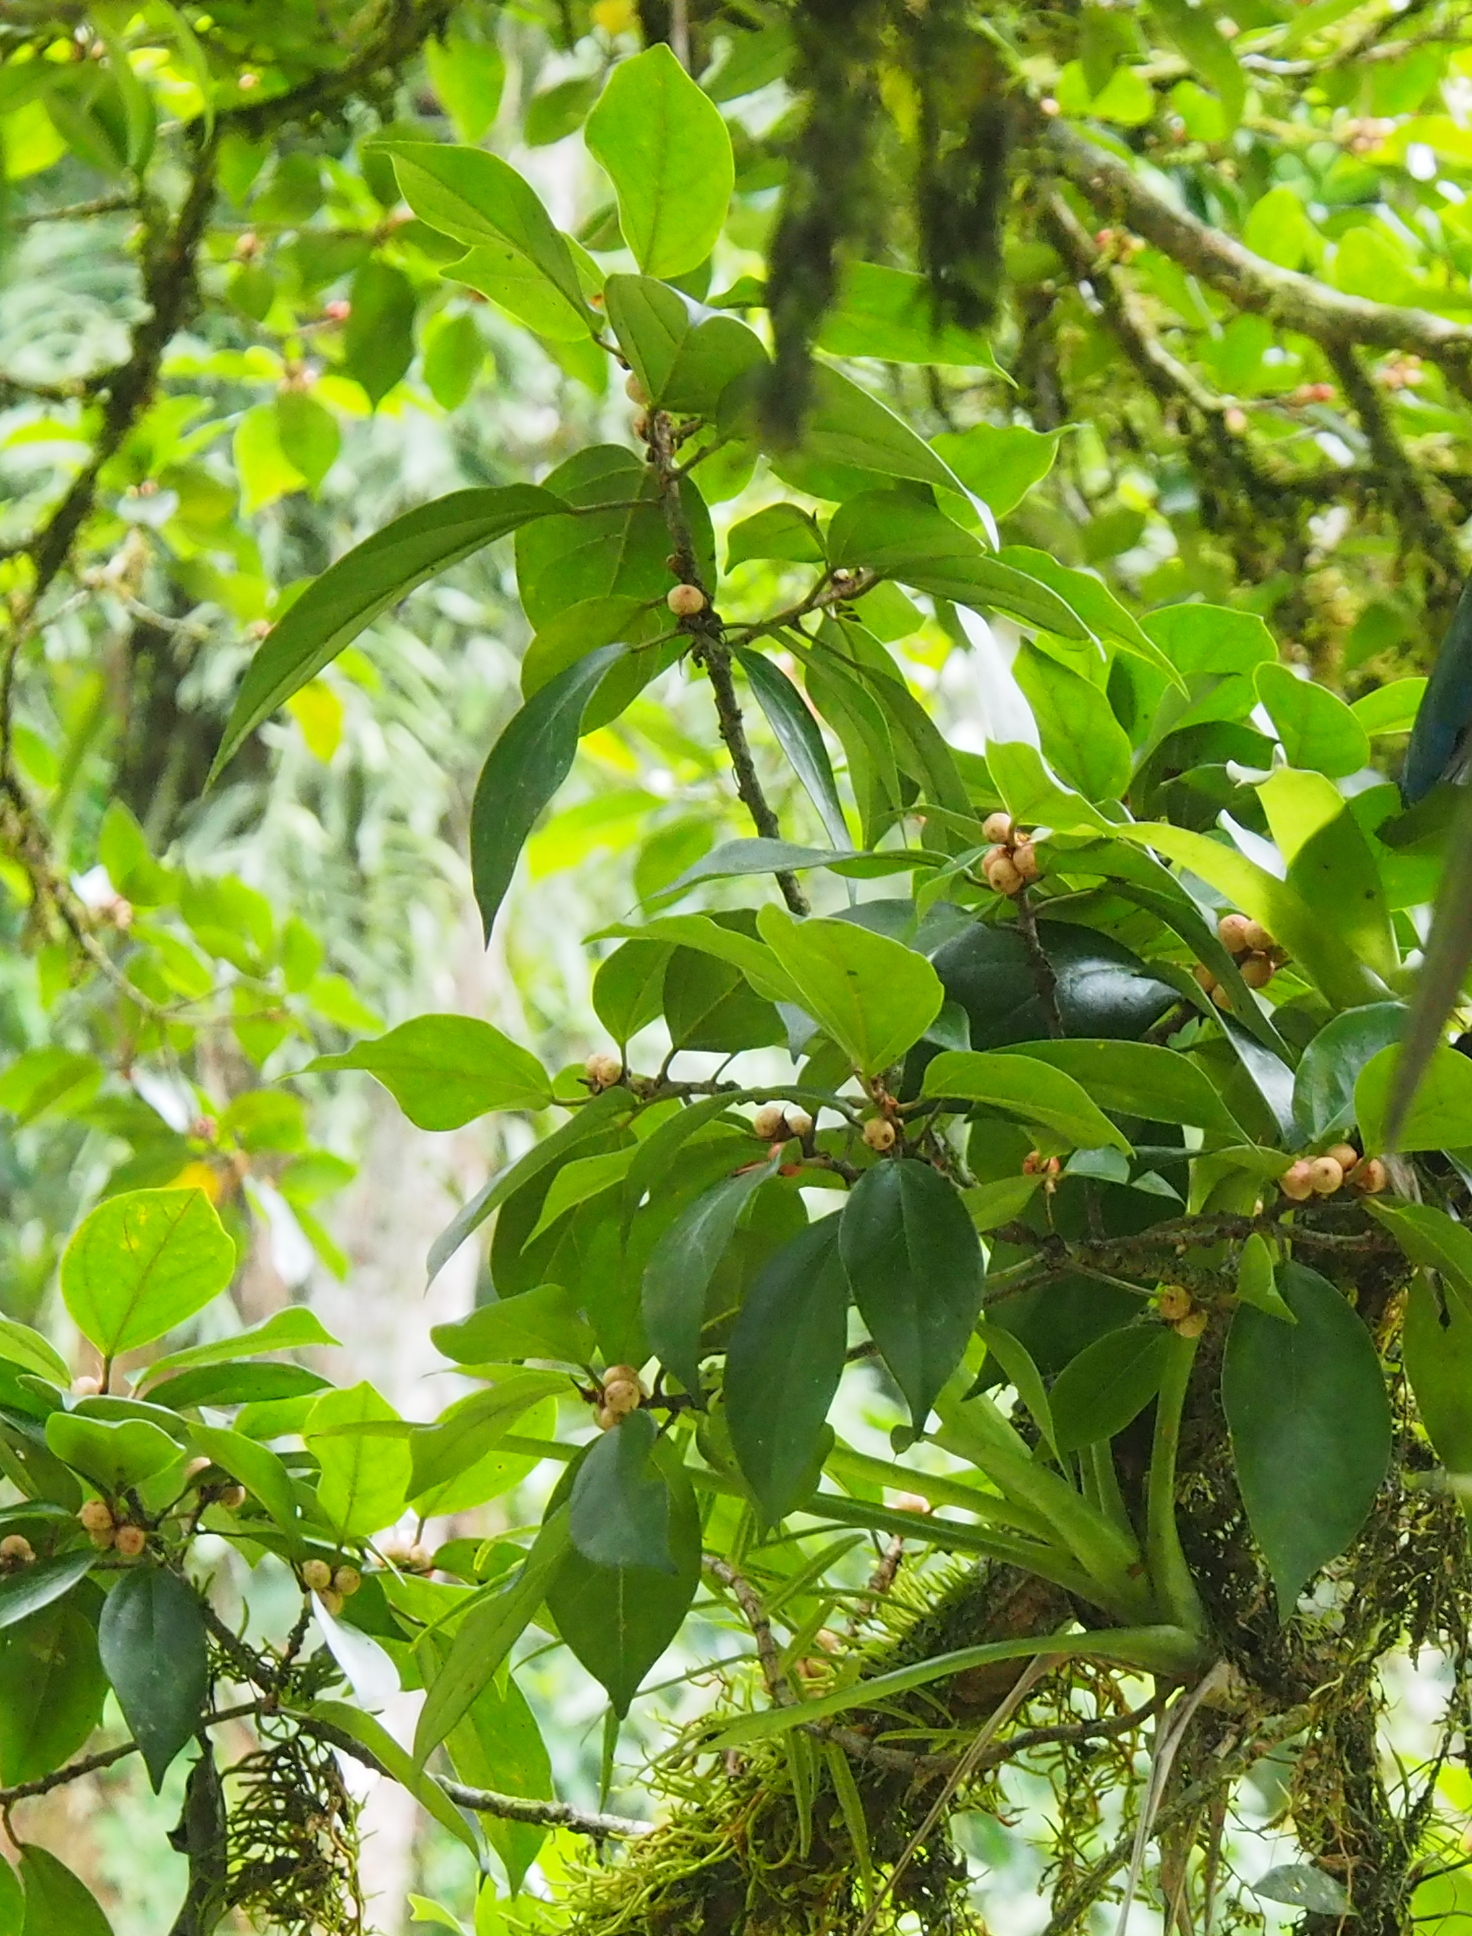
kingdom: Plantae
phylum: Tracheophyta
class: Magnoliopsida
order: Rosales
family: Moraceae
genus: Ficus
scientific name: Ficus colubrinae
